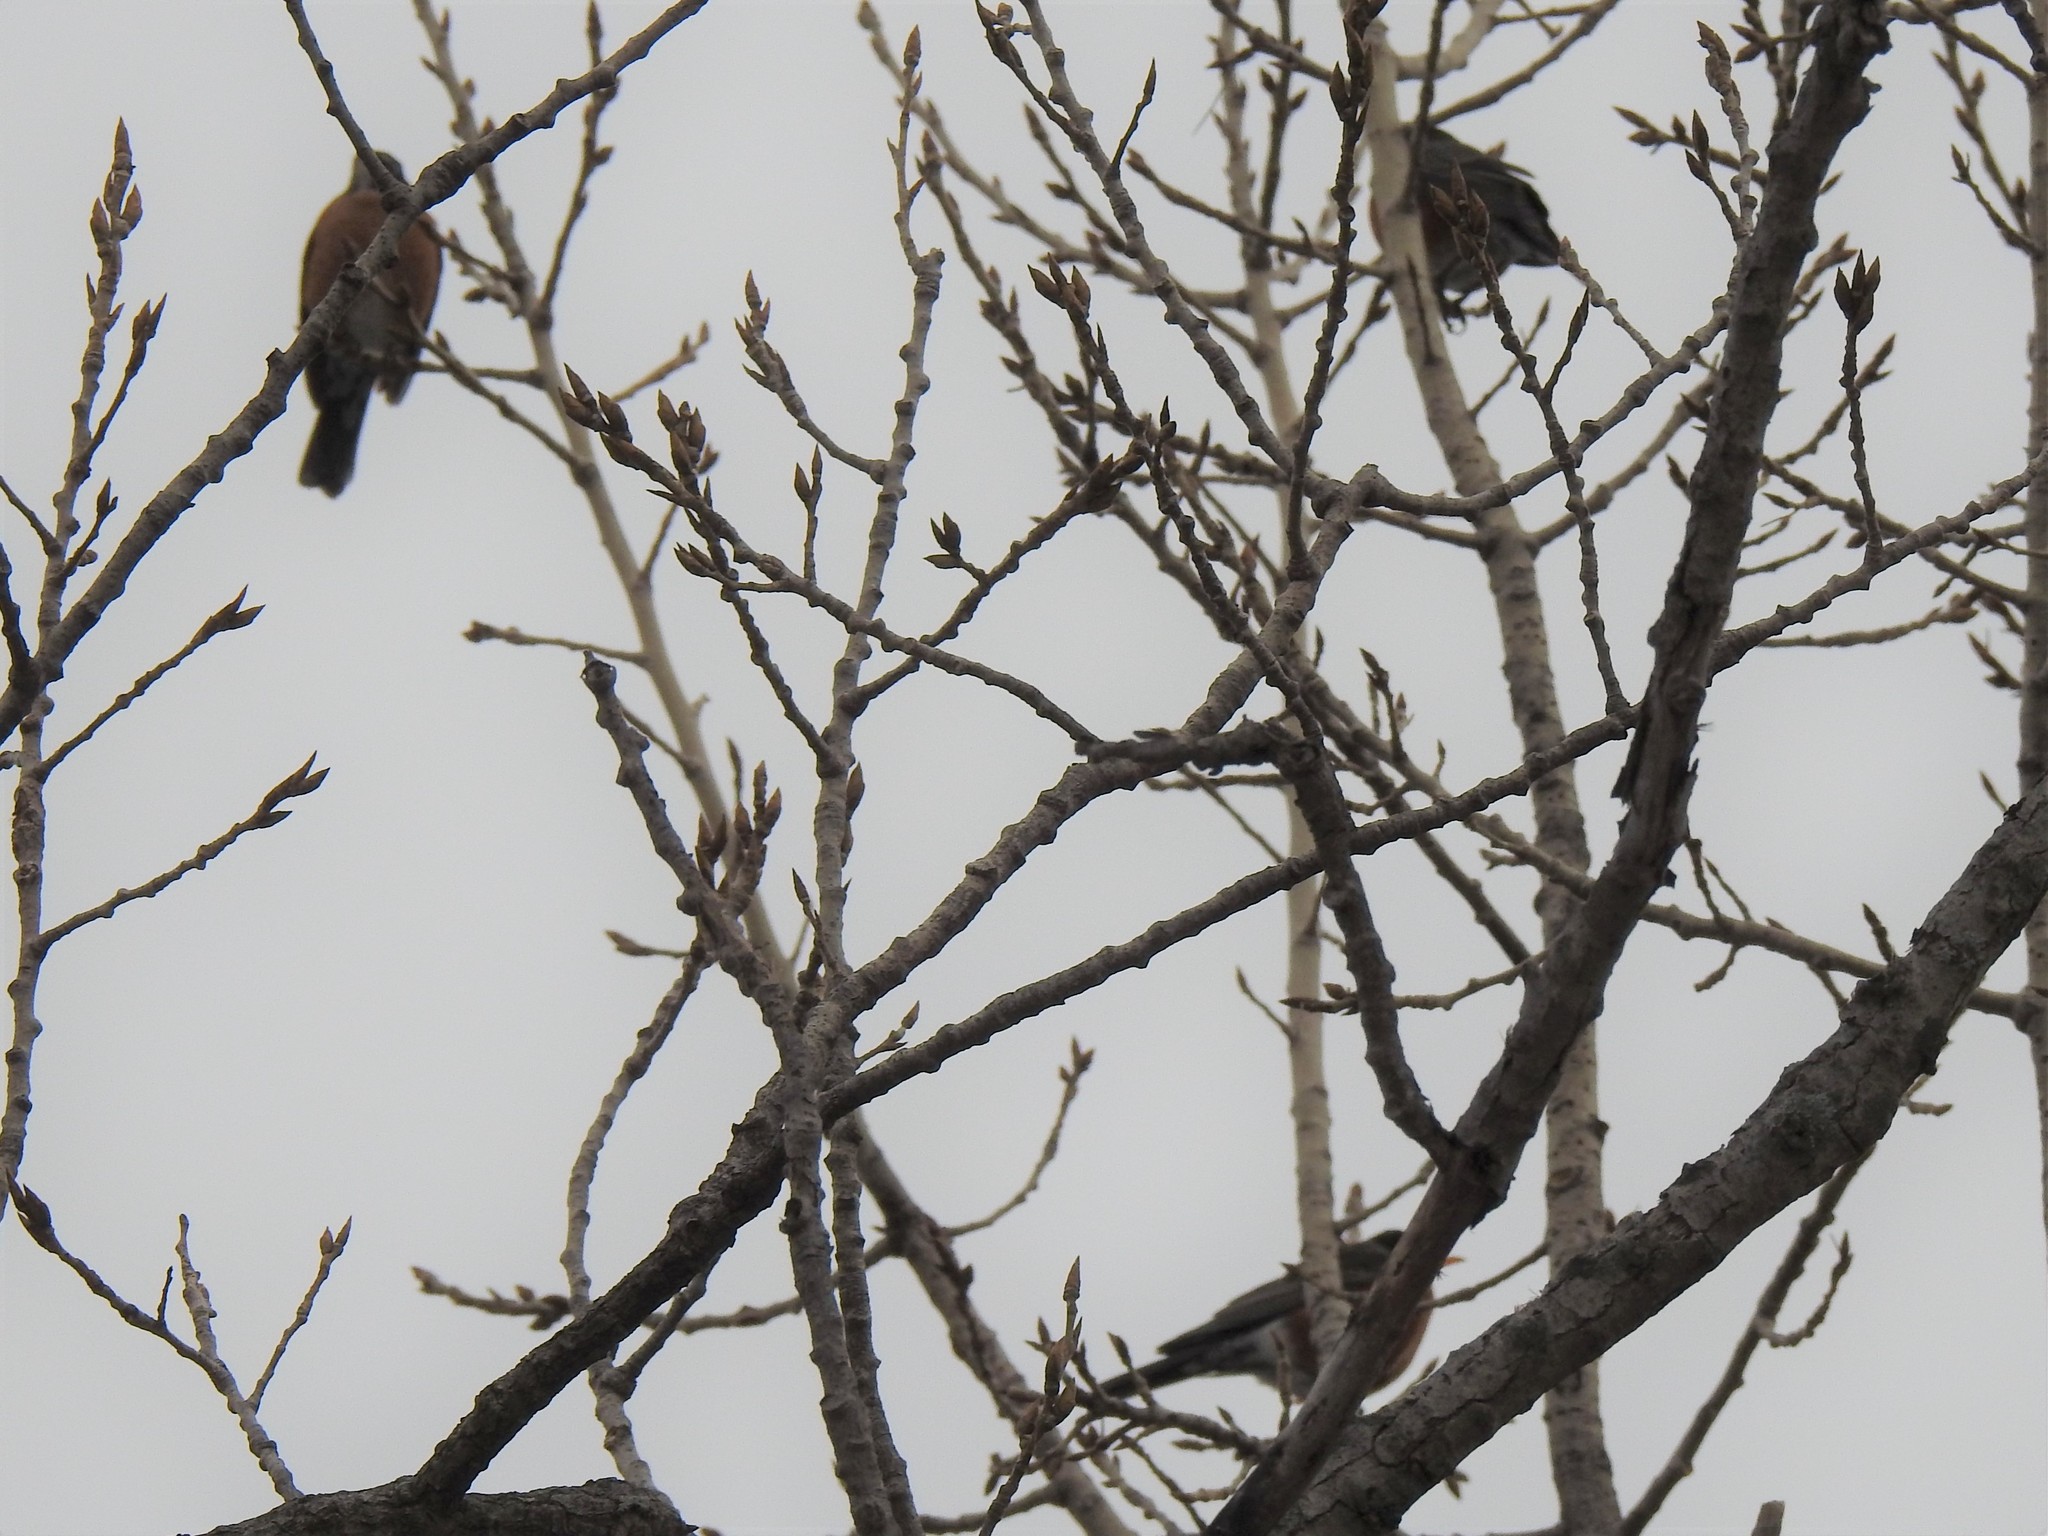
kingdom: Animalia
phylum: Chordata
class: Aves
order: Passeriformes
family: Turdidae
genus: Turdus
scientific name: Turdus migratorius
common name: American robin
